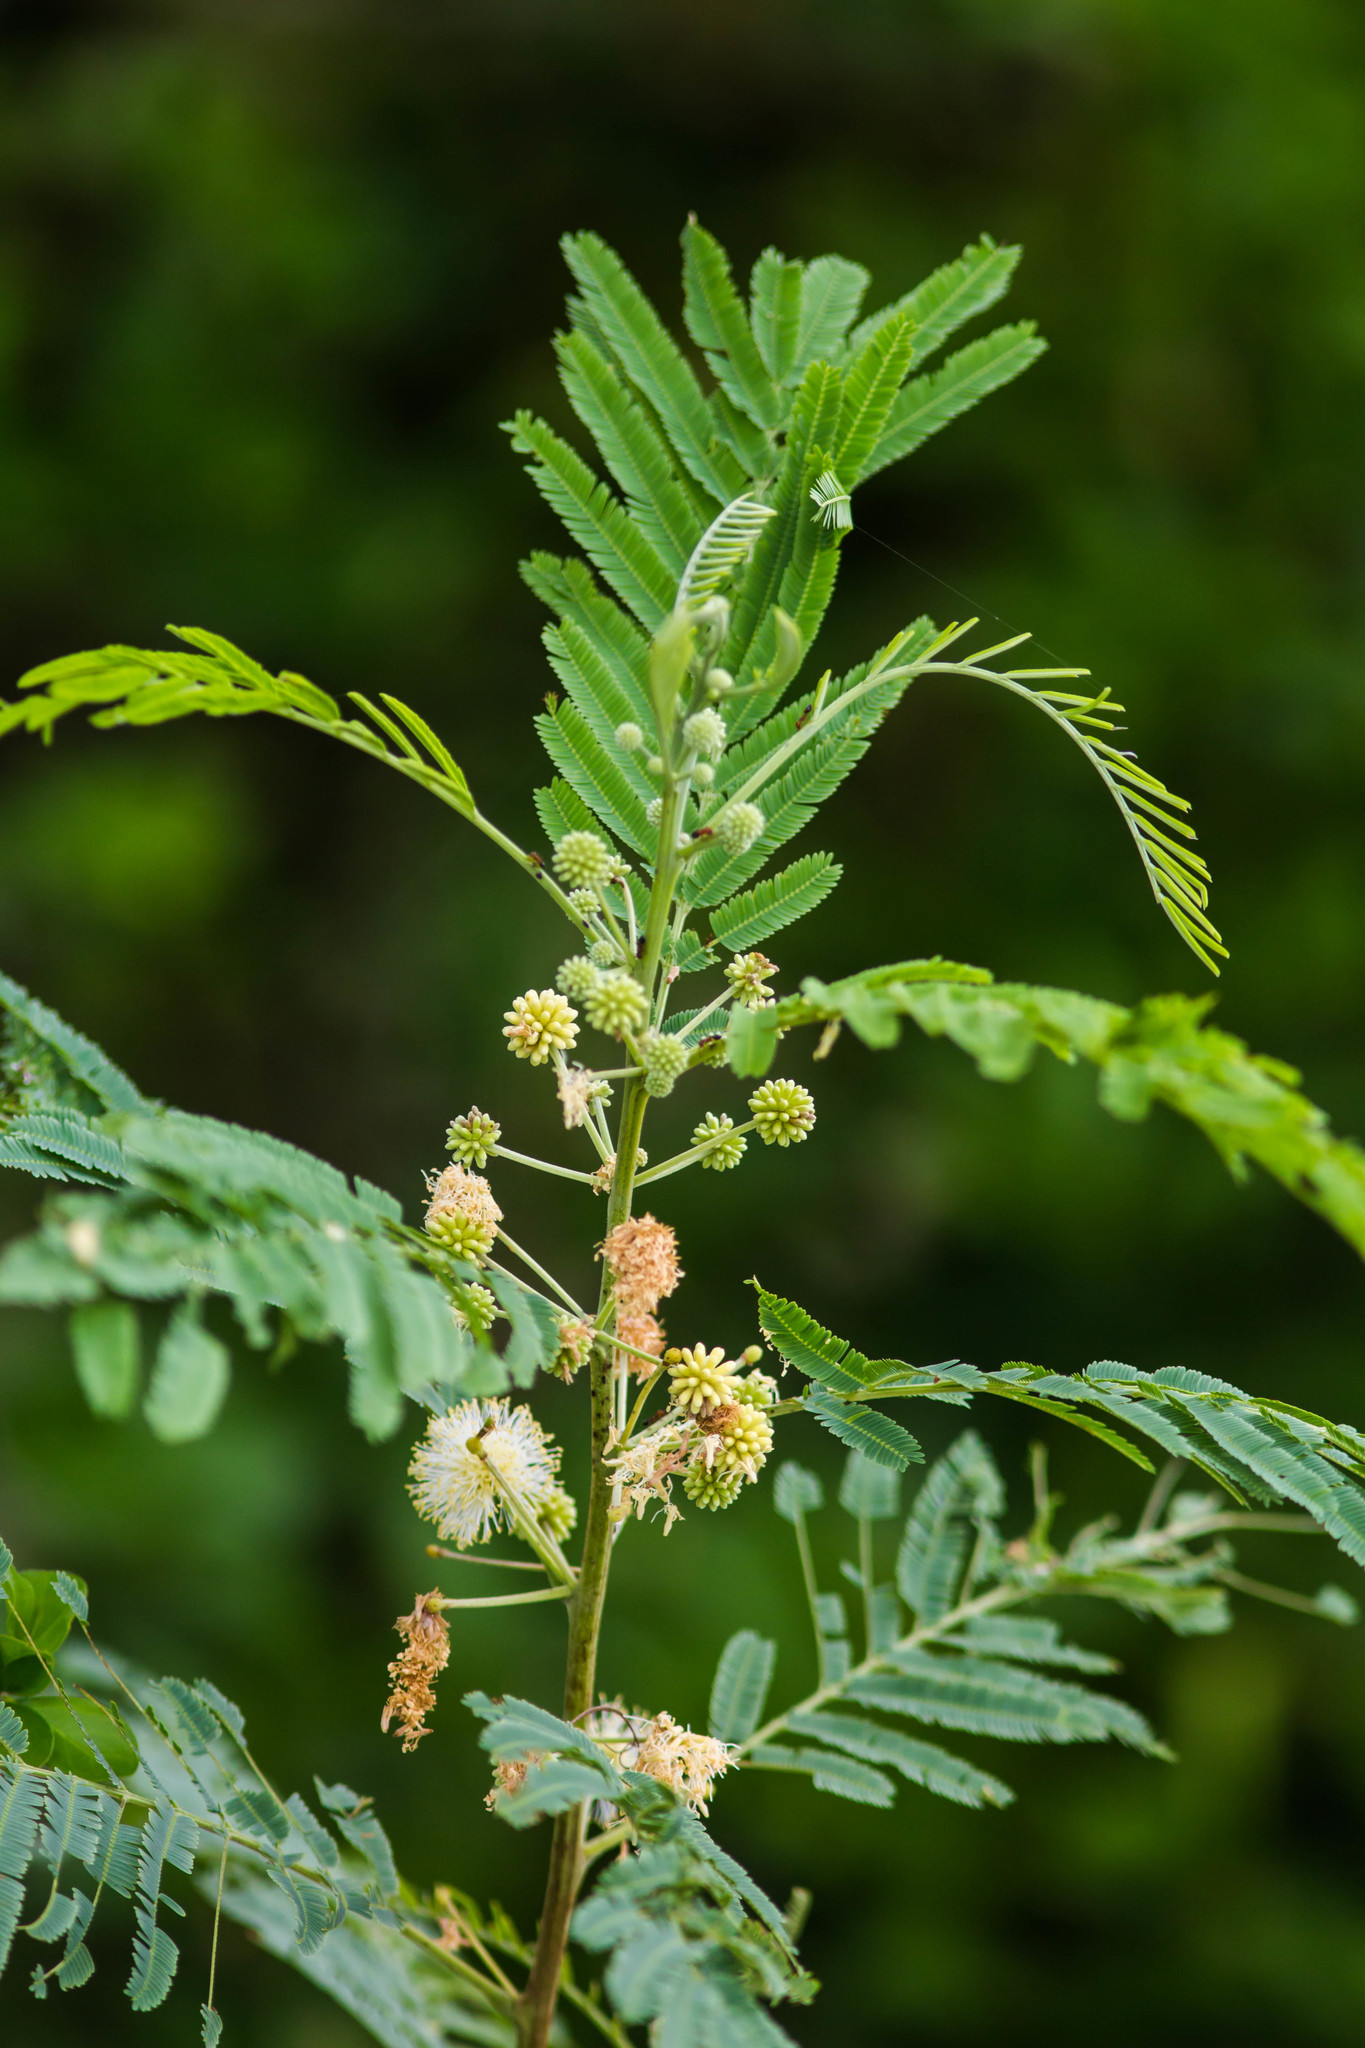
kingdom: Plantae
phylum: Tracheophyta
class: Magnoliopsida
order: Fabales
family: Fabaceae
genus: Leucaena
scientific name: Leucaena leucocephala
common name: White leadtree
